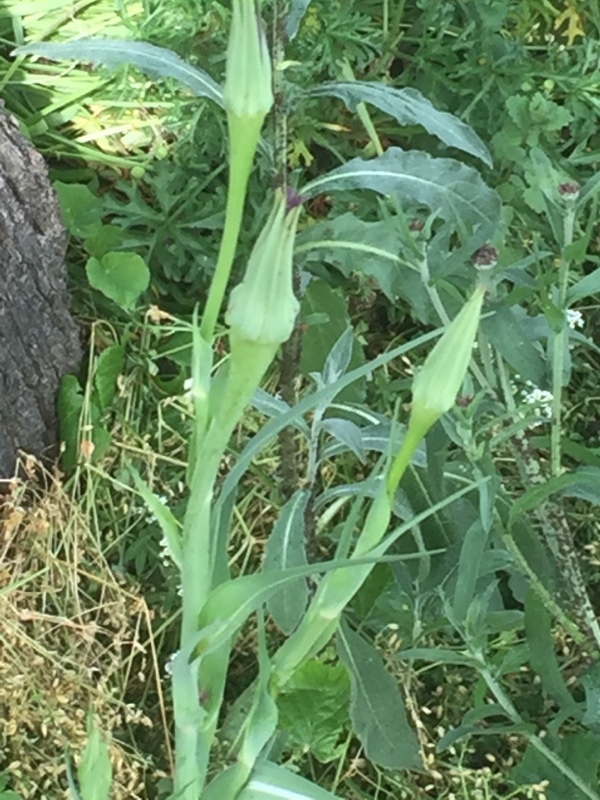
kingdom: Plantae
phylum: Tracheophyta
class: Magnoliopsida
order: Asterales
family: Asteraceae
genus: Tragopogon
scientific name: Tragopogon porrifolius
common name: Salsify
